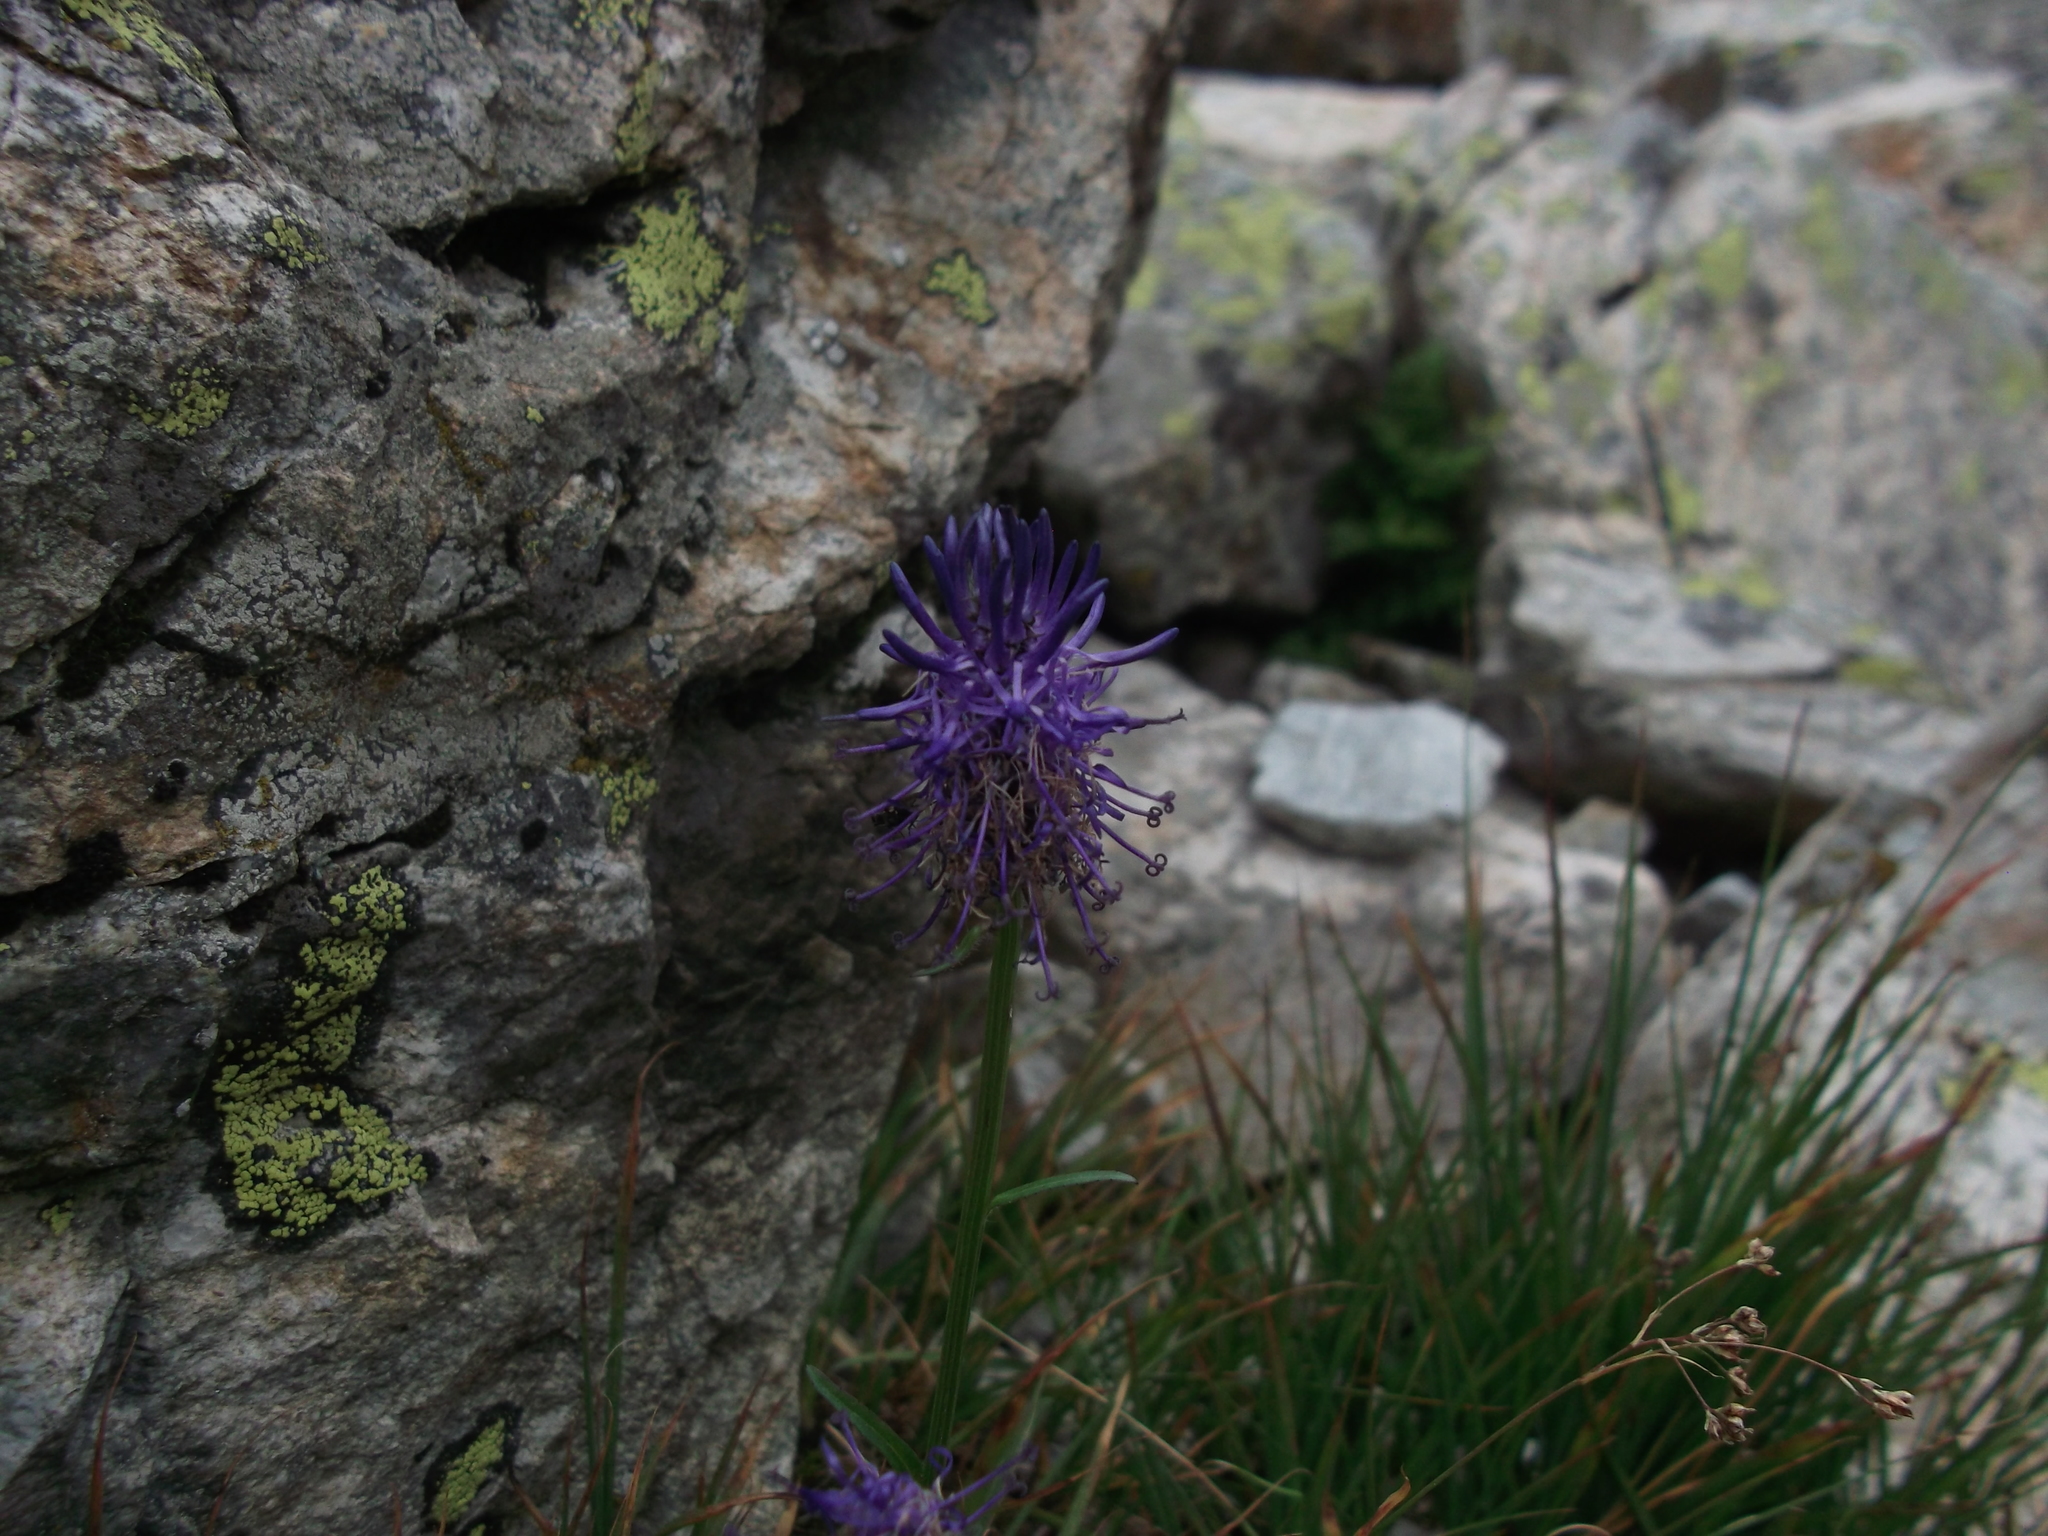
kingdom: Plantae
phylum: Tracheophyta
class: Magnoliopsida
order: Asterales
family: Campanulaceae
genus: Phyteuma
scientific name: Phyteuma betonicifolium
